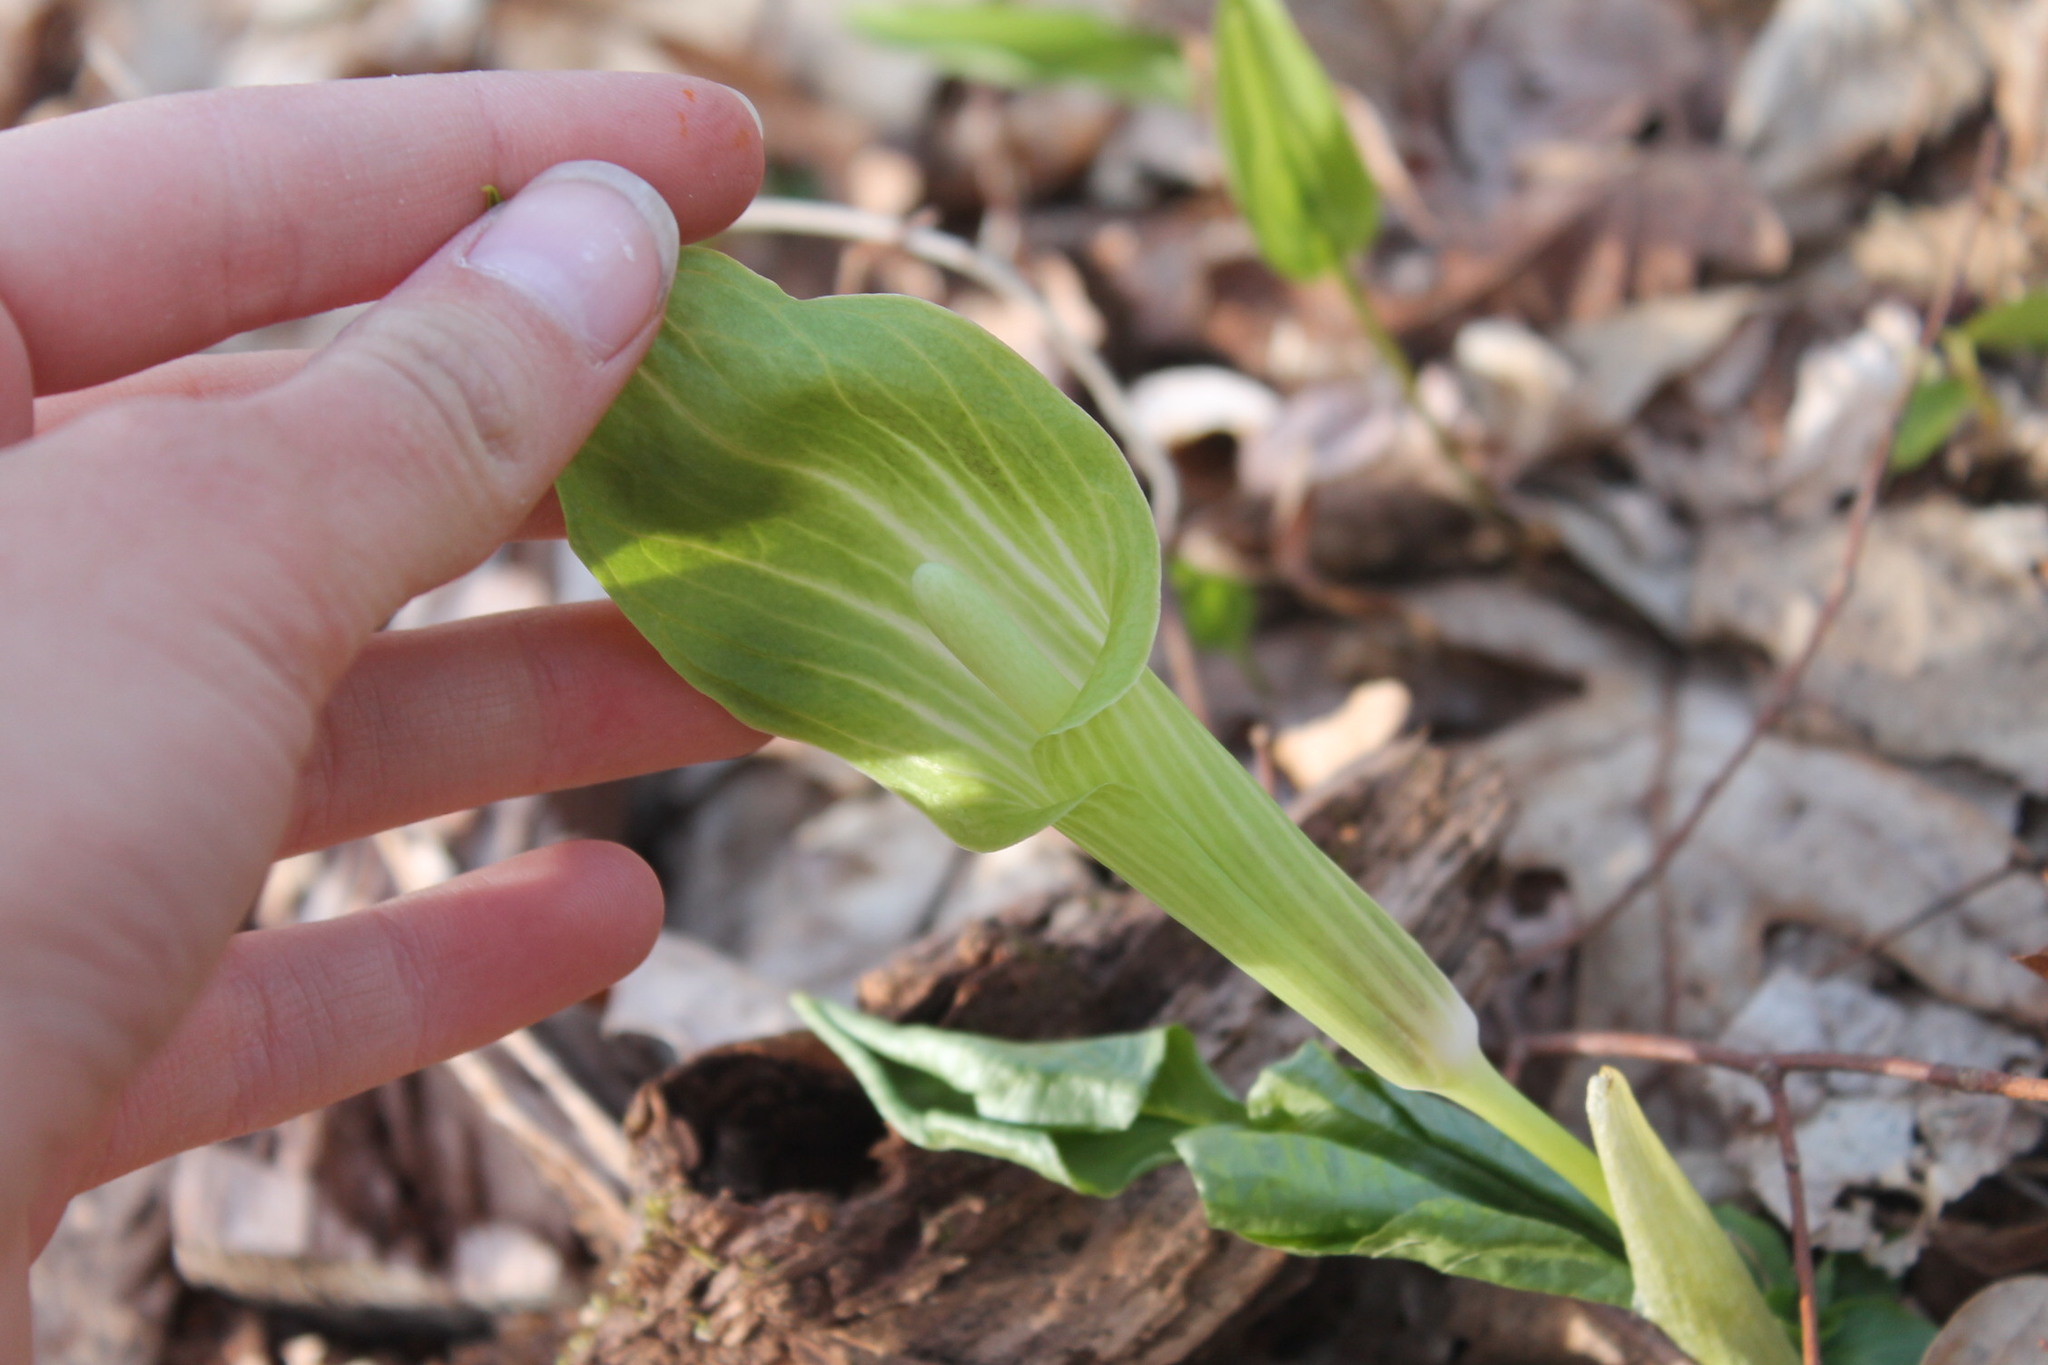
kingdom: Plantae
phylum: Tracheophyta
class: Liliopsida
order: Alismatales
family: Araceae
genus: Arisaema
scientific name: Arisaema triphyllum
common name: Jack-in-the-pulpit
